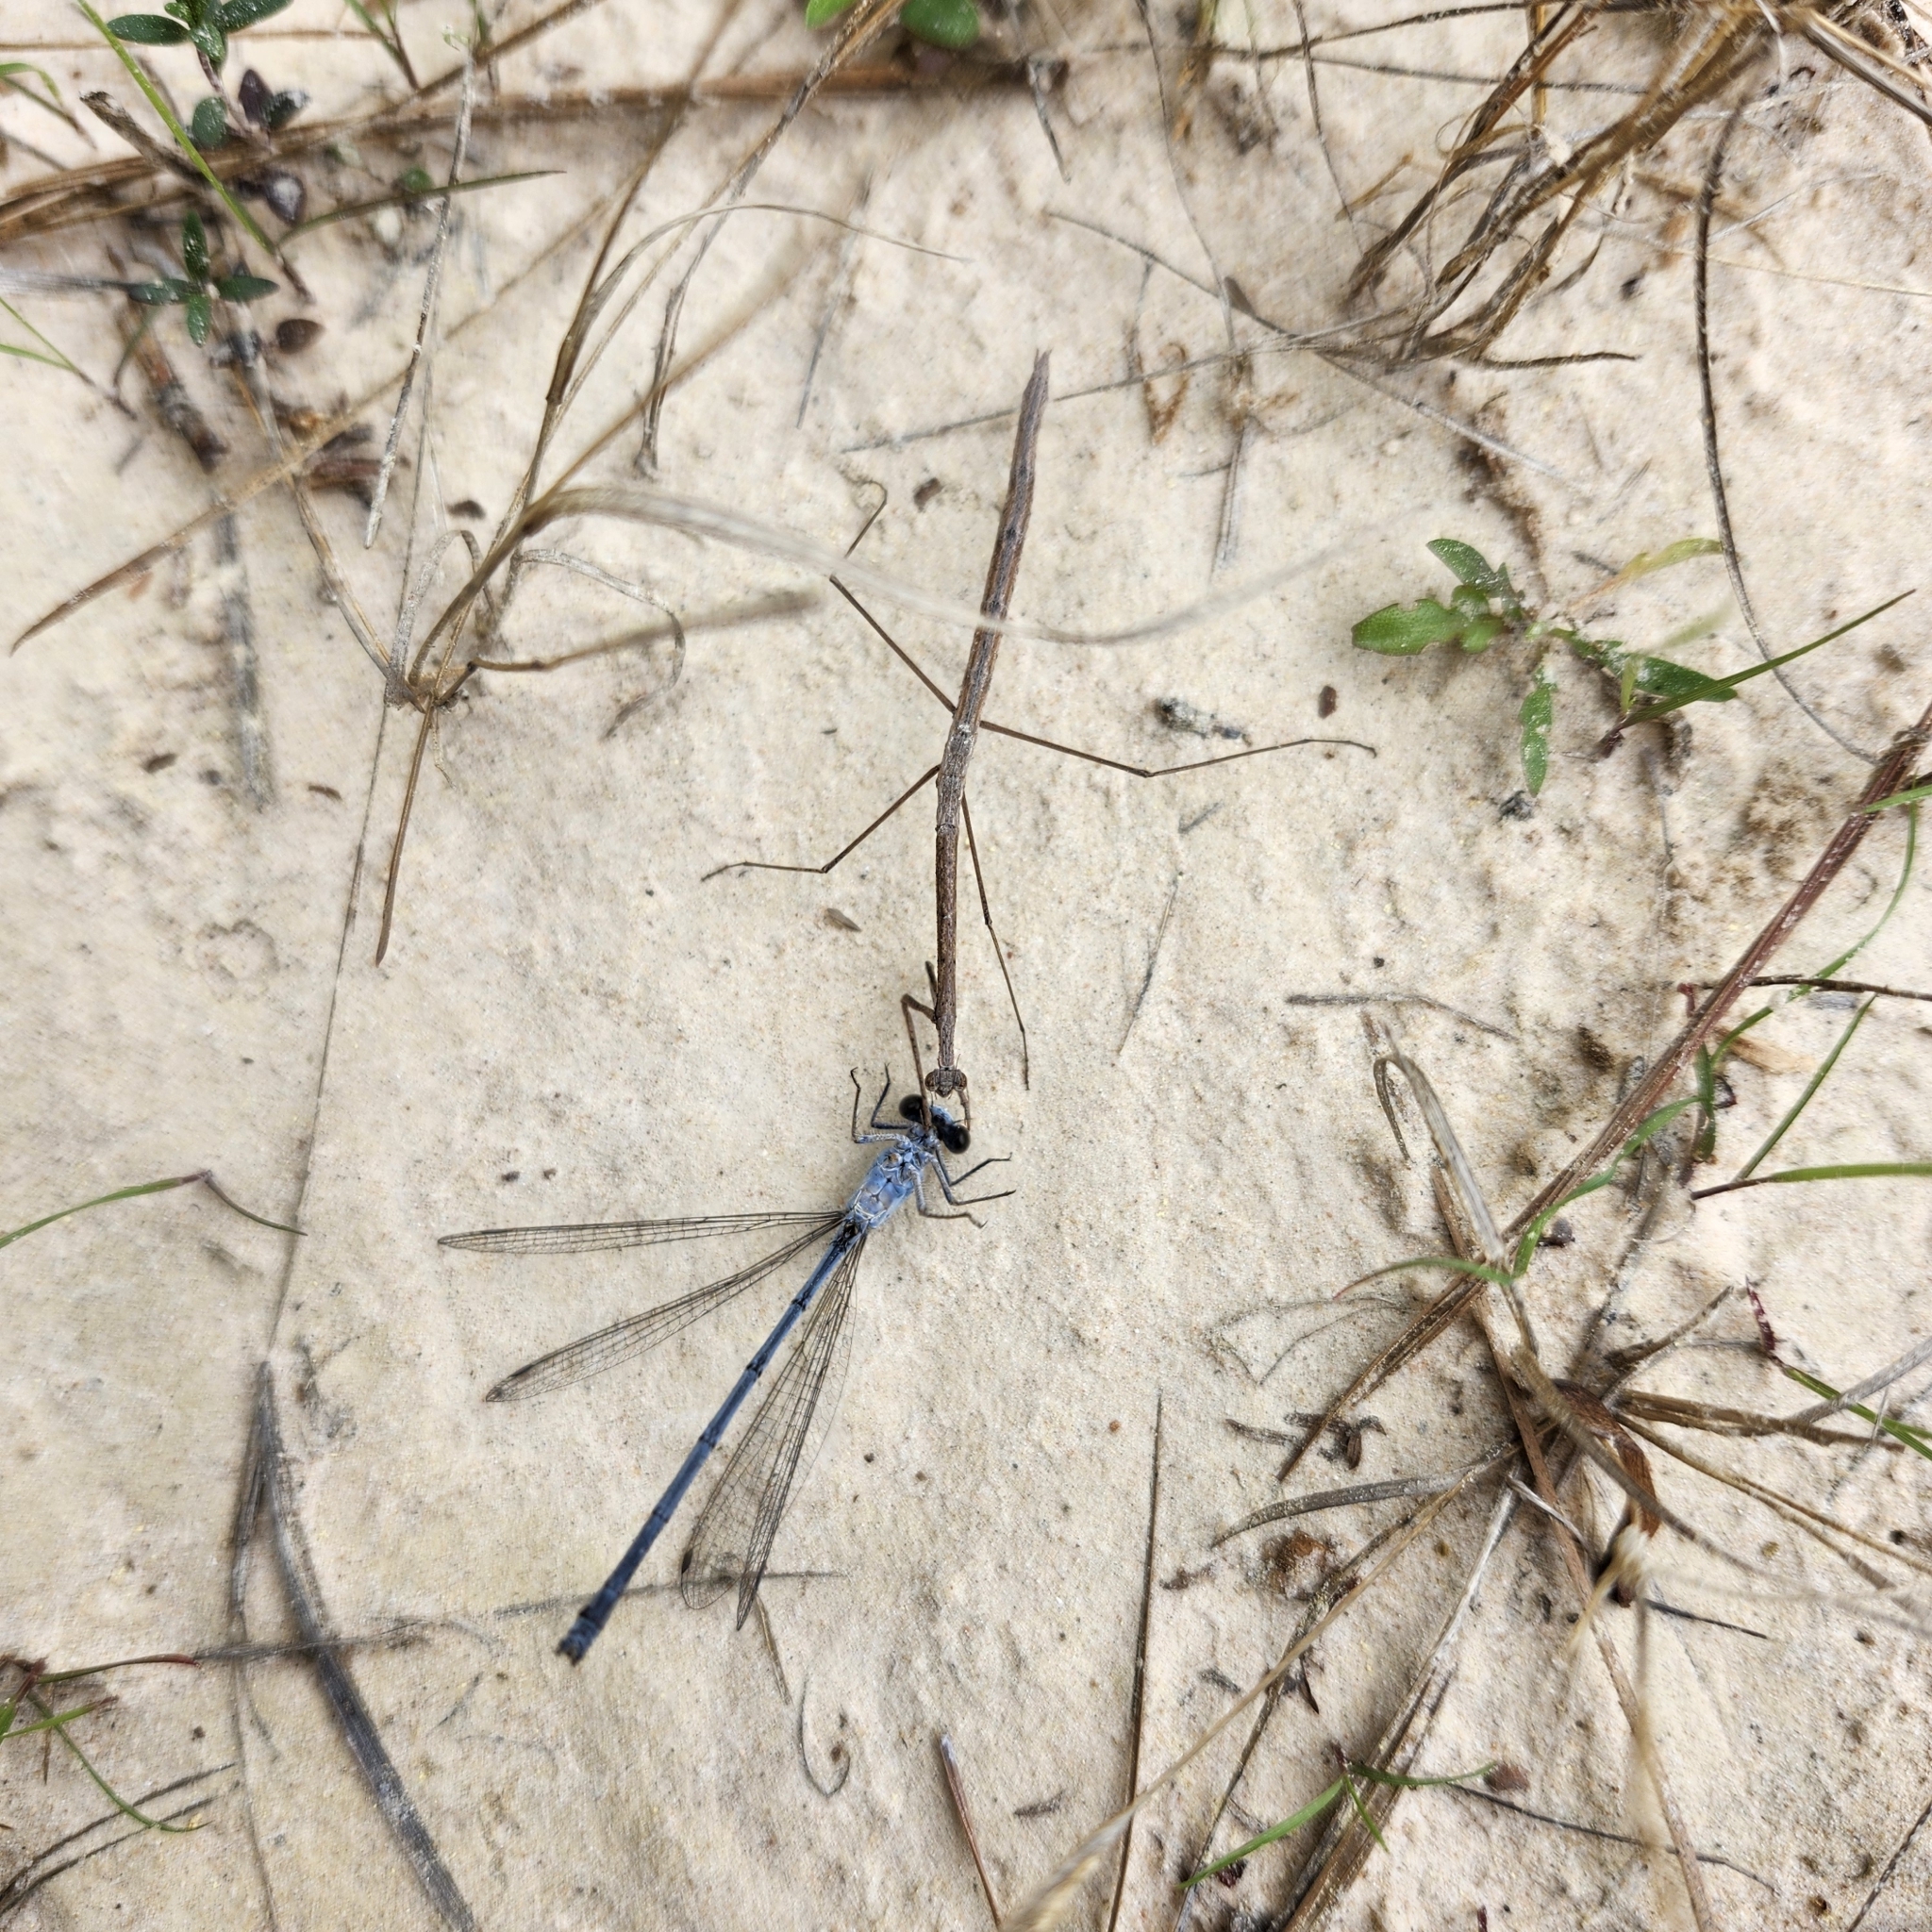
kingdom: Animalia
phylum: Arthropoda
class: Insecta
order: Mantodea
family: Thespidae
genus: Thesprotia
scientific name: Thesprotia graminis
